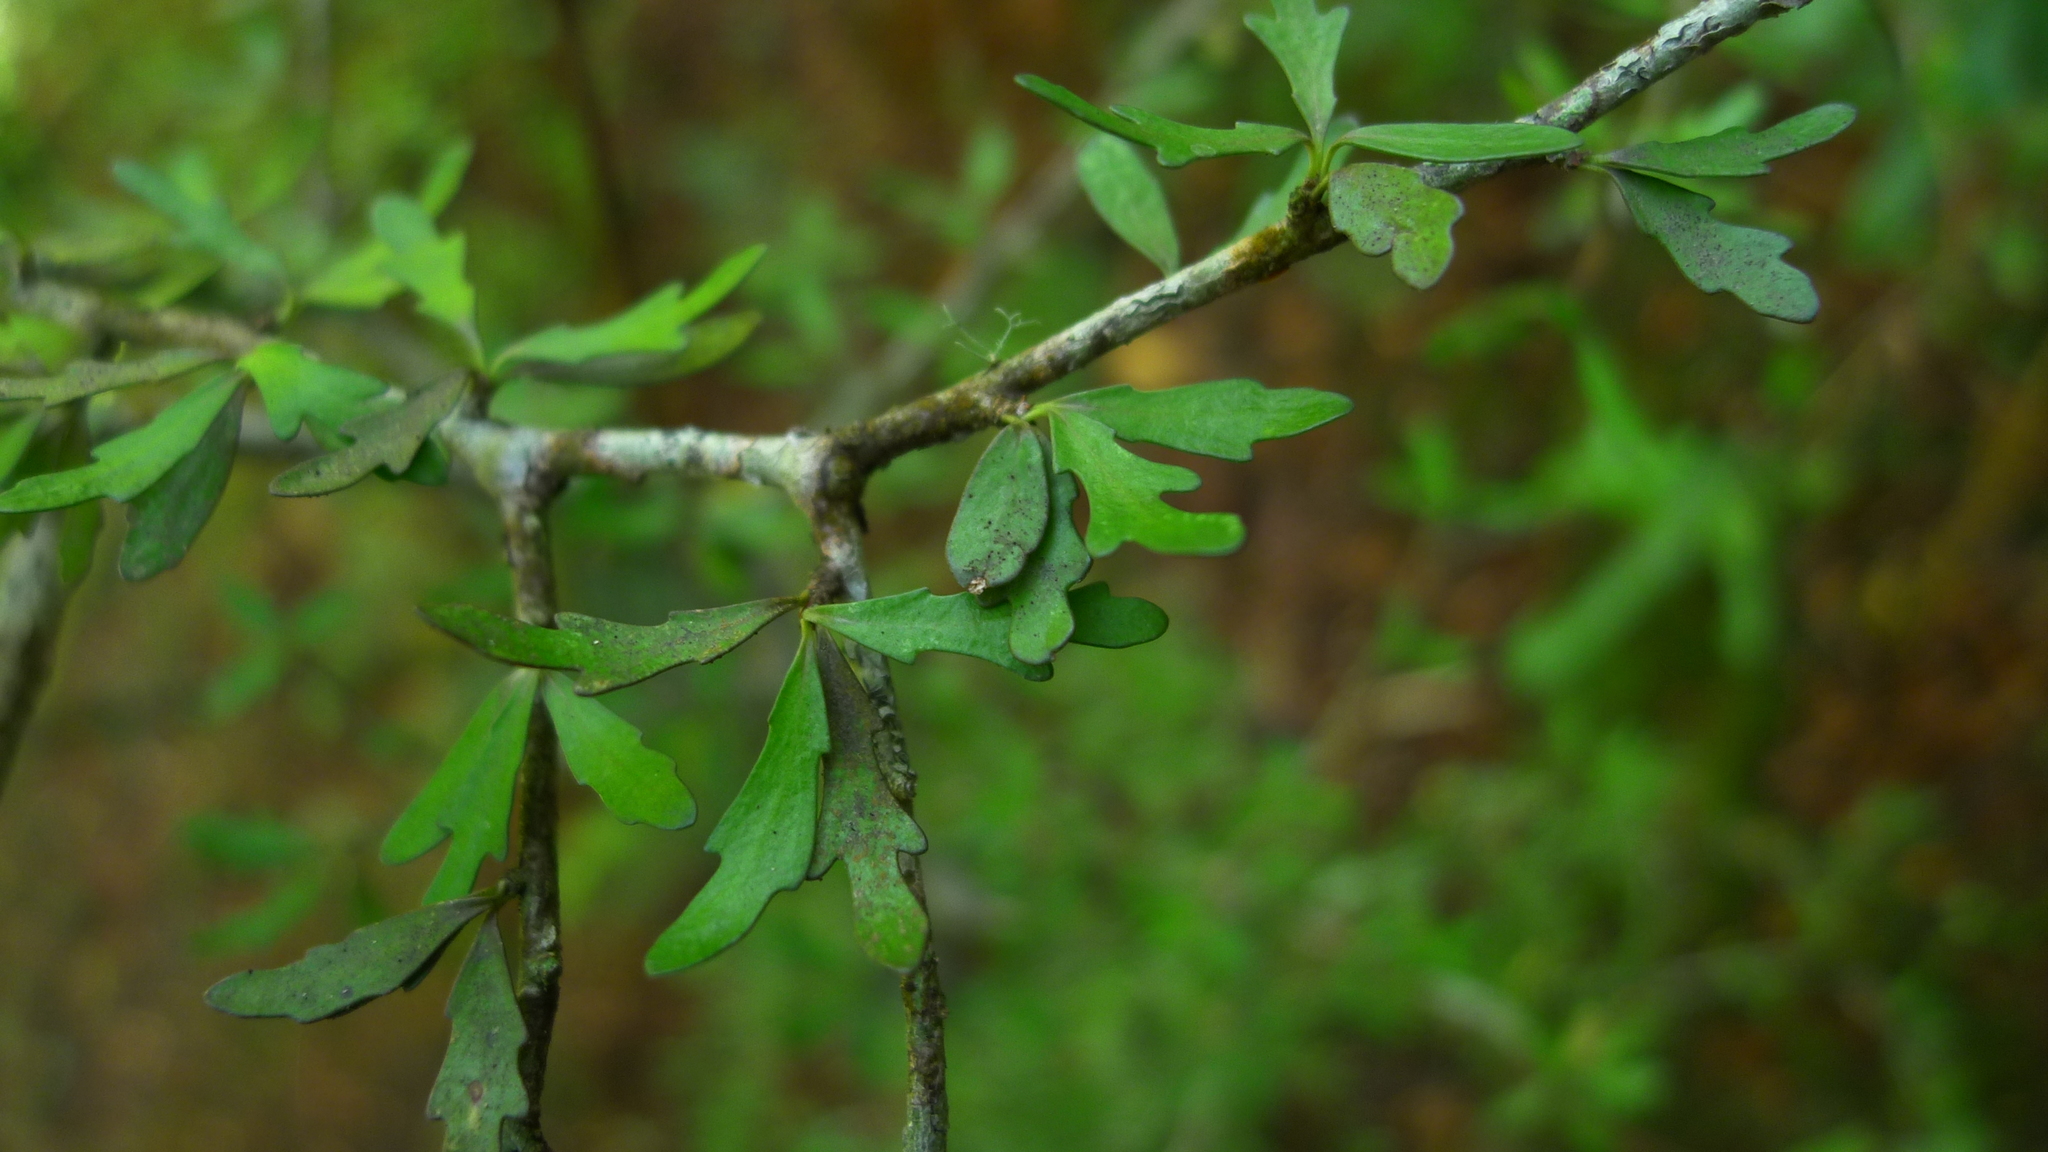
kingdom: Plantae
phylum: Tracheophyta
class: Magnoliopsida
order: Apiales
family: Pittosporaceae
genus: Pittosporum
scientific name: Pittosporum divaricatum
